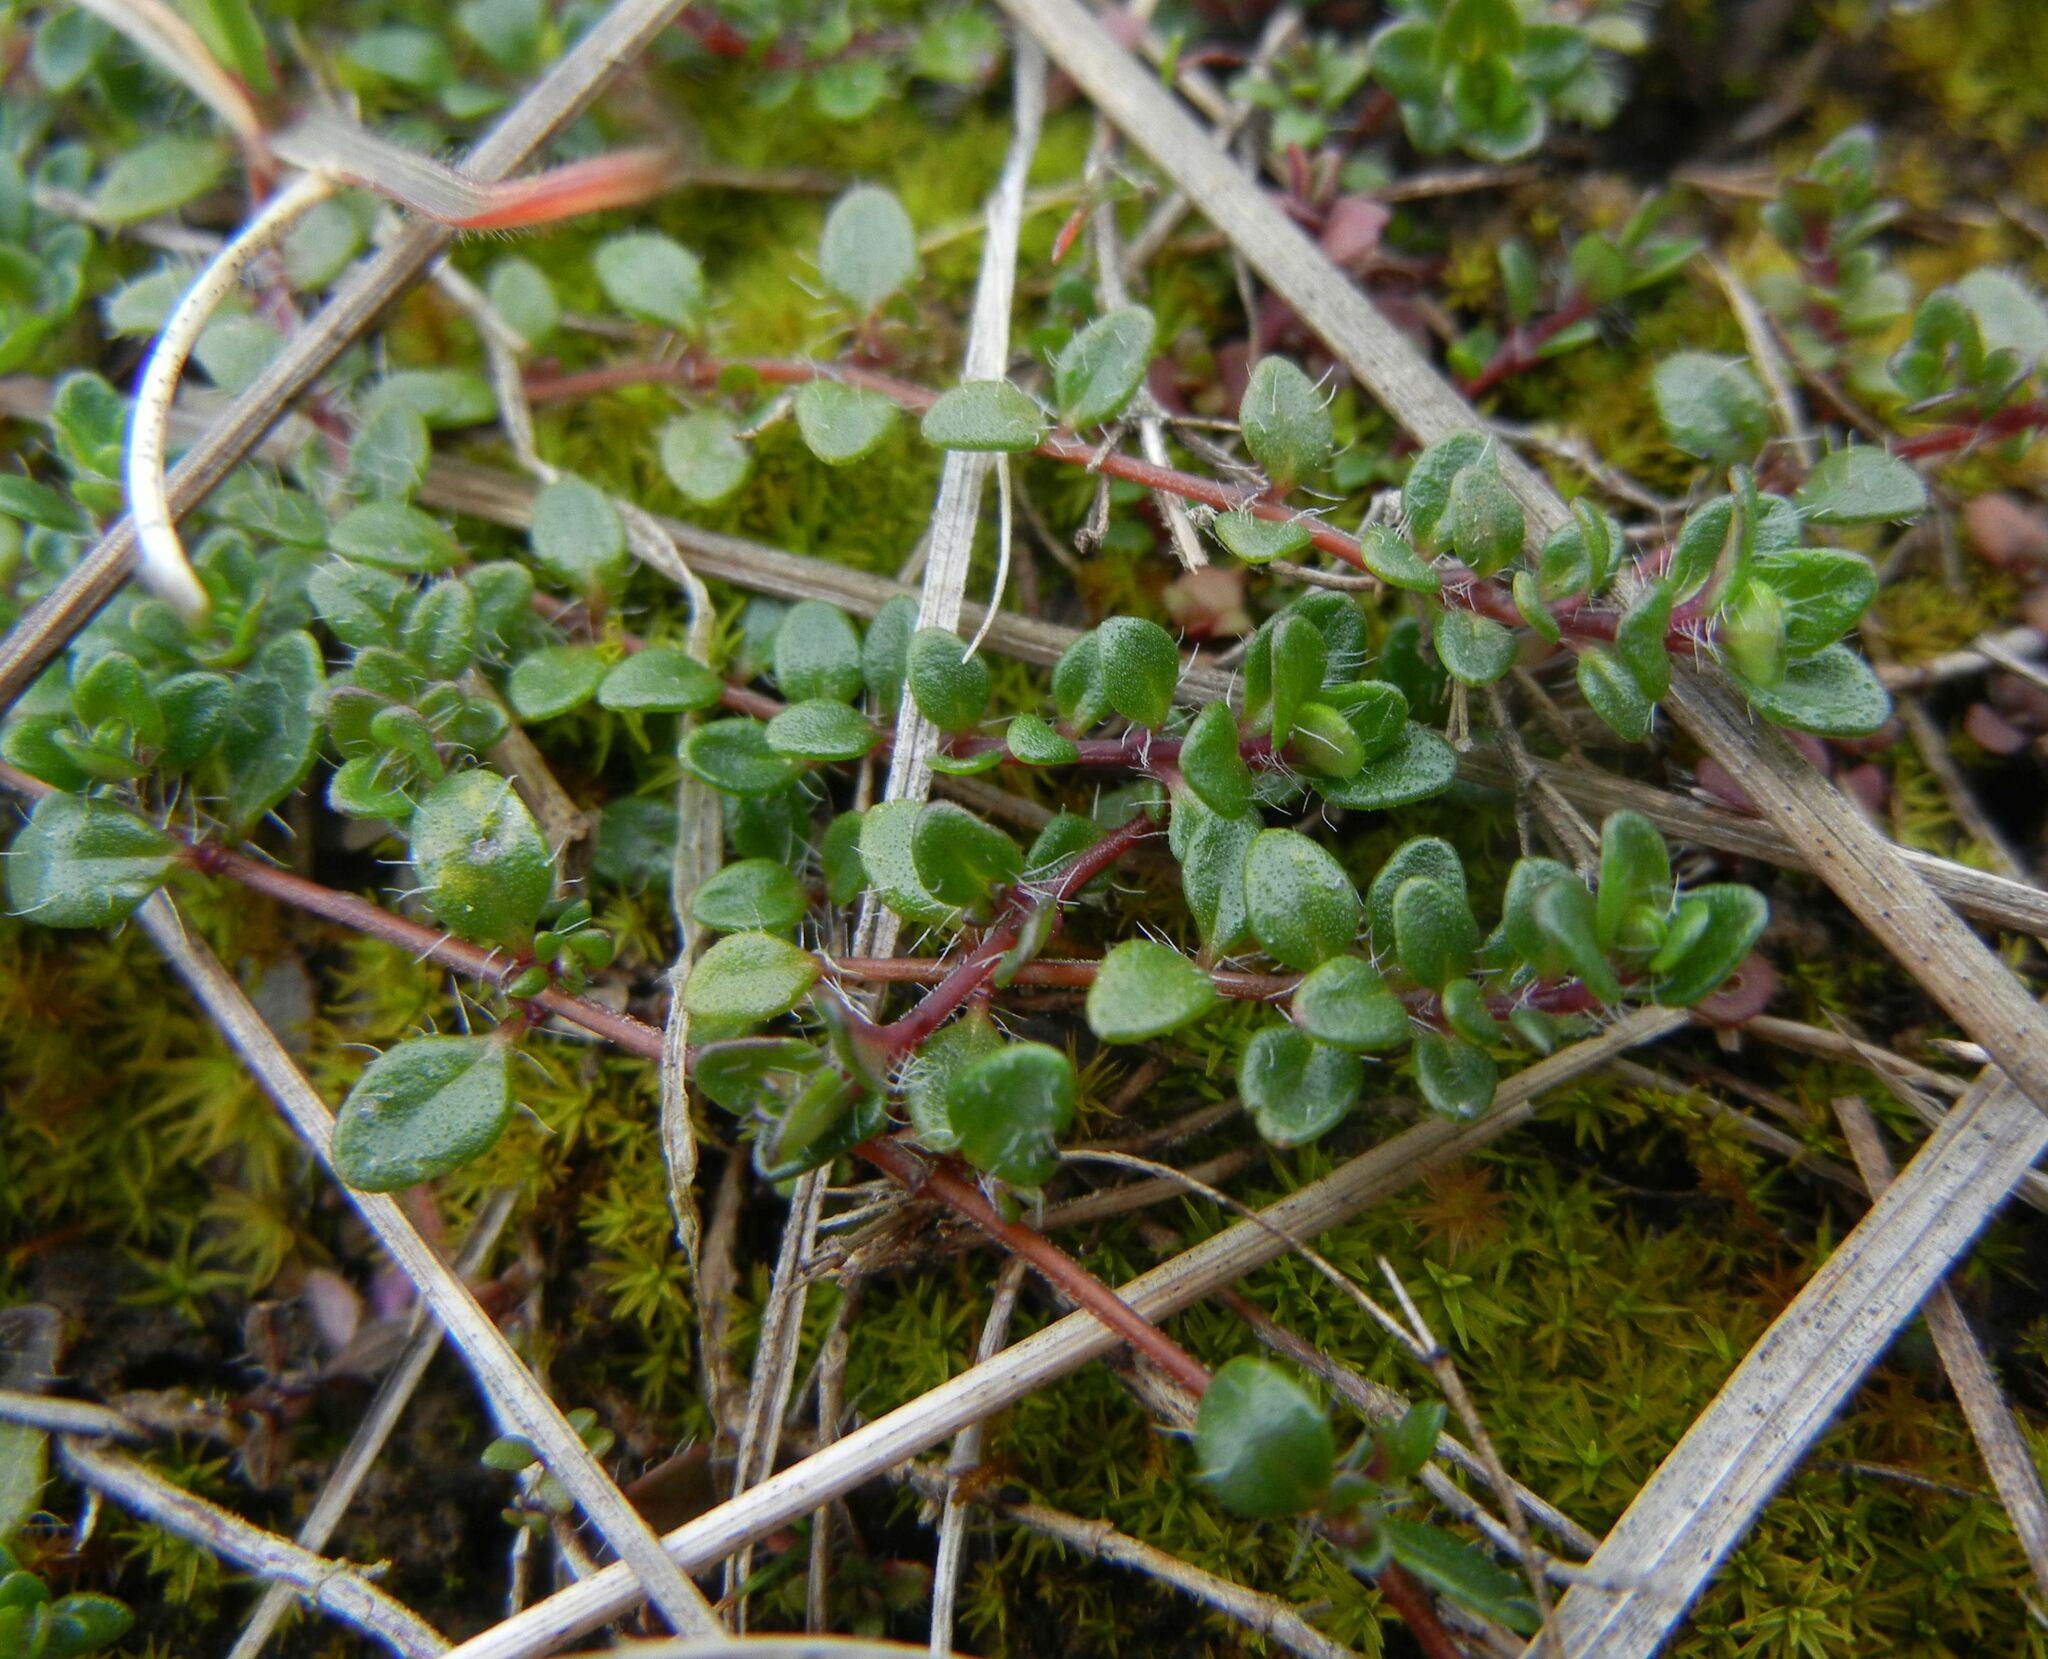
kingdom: Plantae
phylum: Tracheophyta
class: Magnoliopsida
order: Lamiales
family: Lamiaceae
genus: Thymus
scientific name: Thymus praecox
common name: Wild thyme
